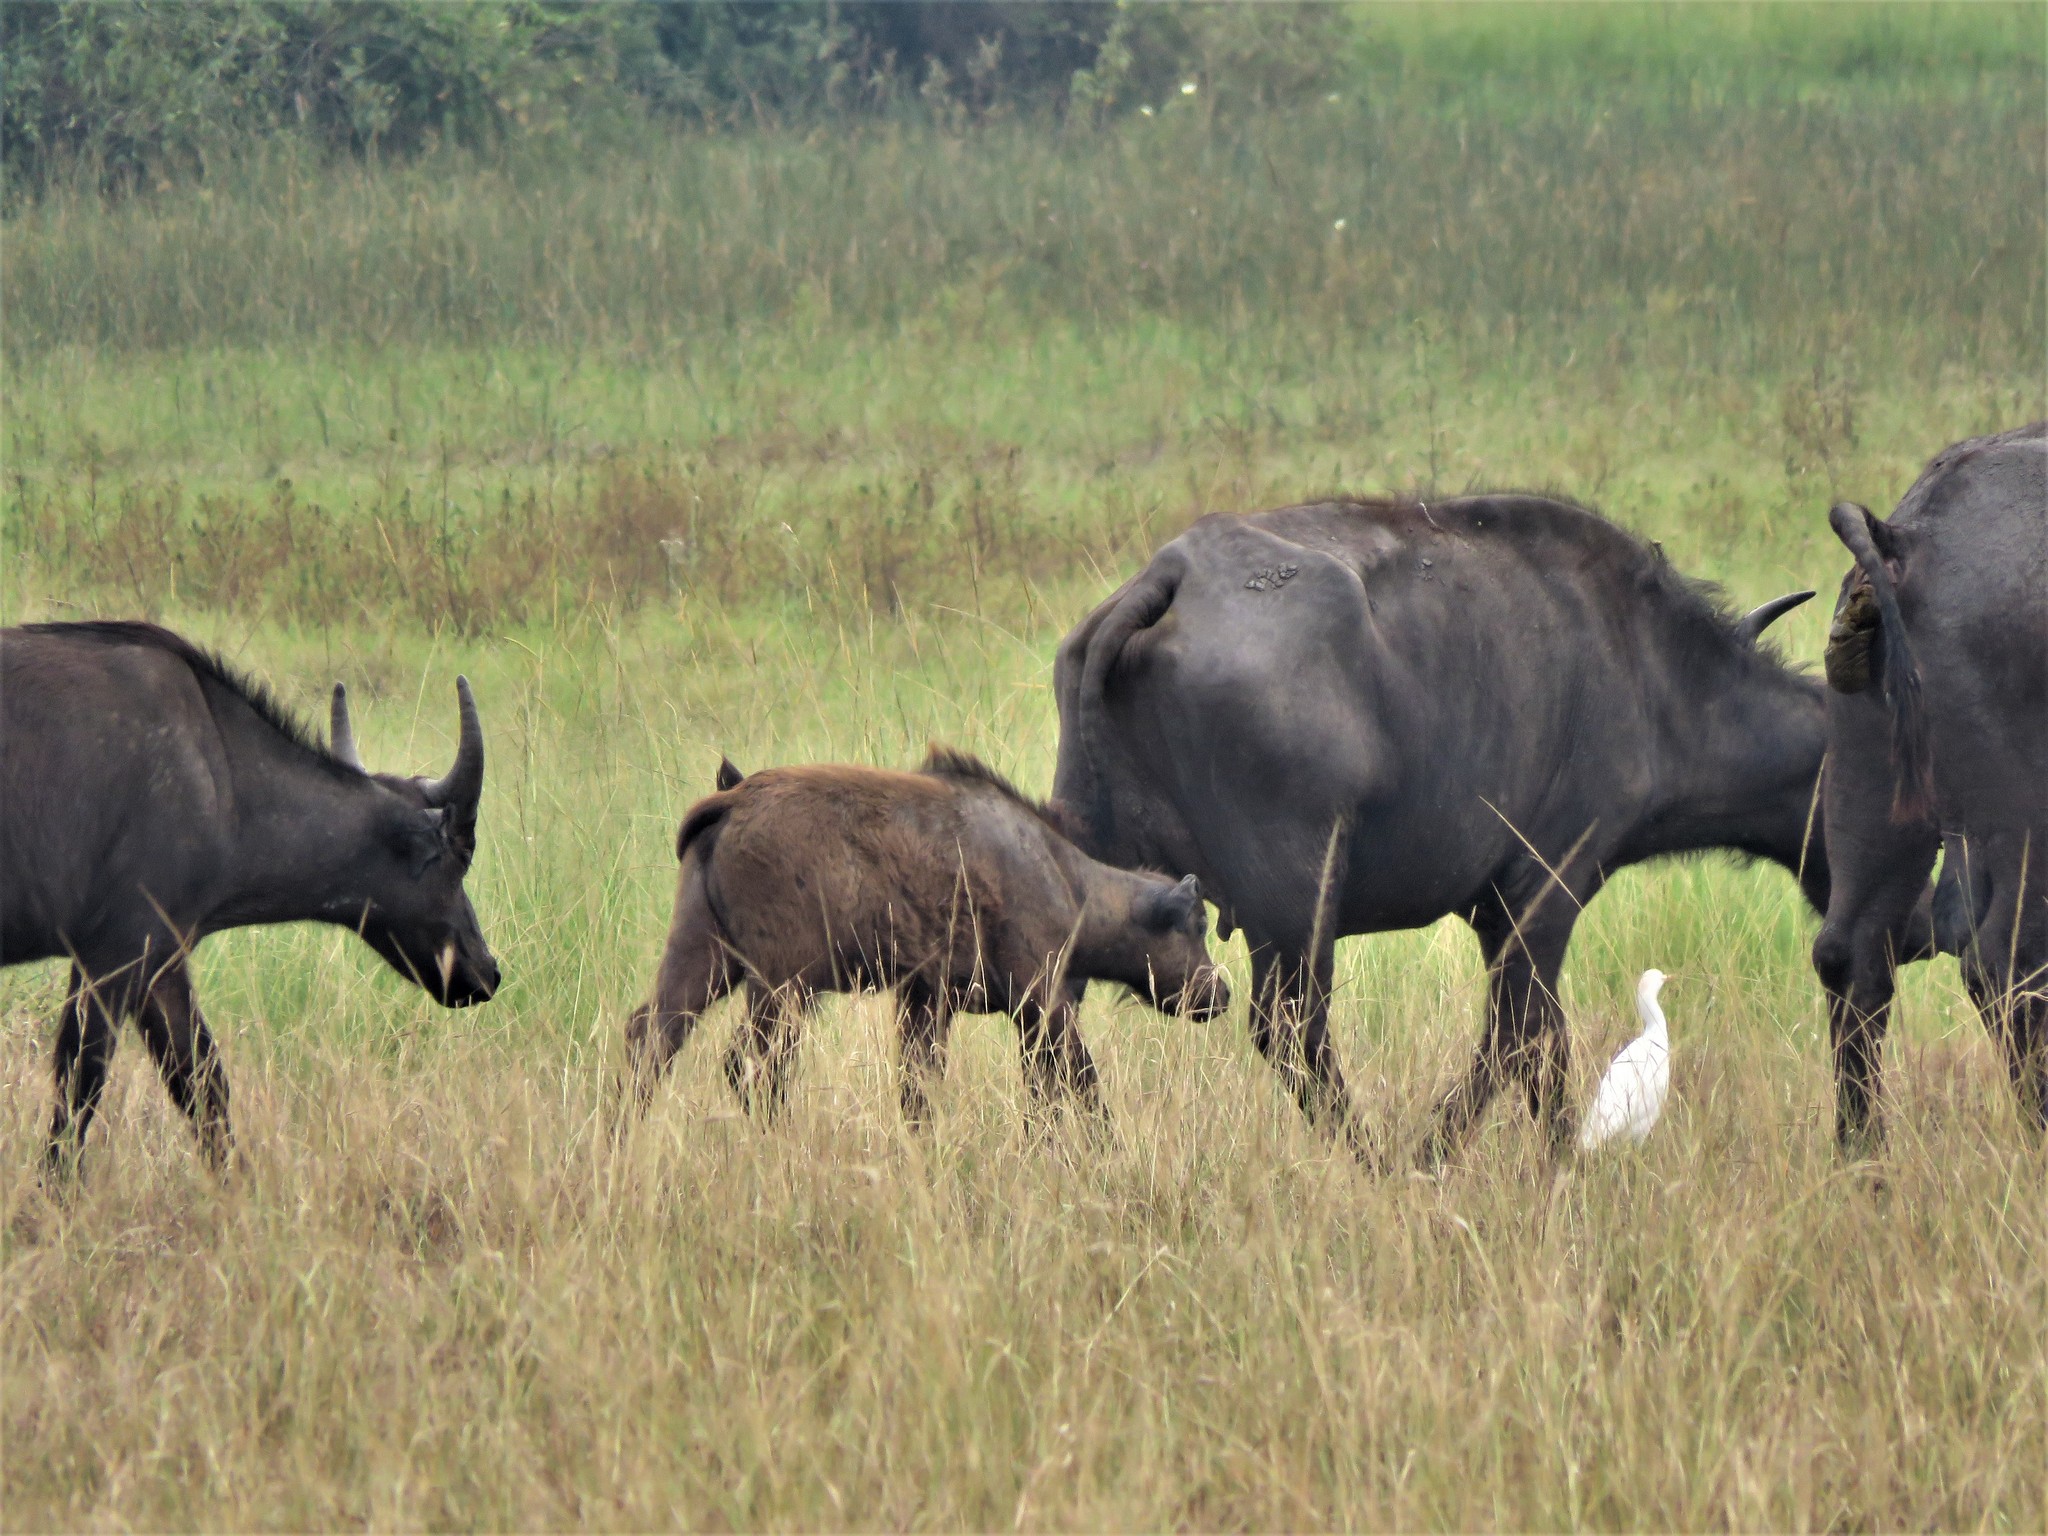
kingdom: Animalia
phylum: Chordata
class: Mammalia
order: Artiodactyla
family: Bovidae
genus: Syncerus
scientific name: Syncerus caffer
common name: African buffalo
